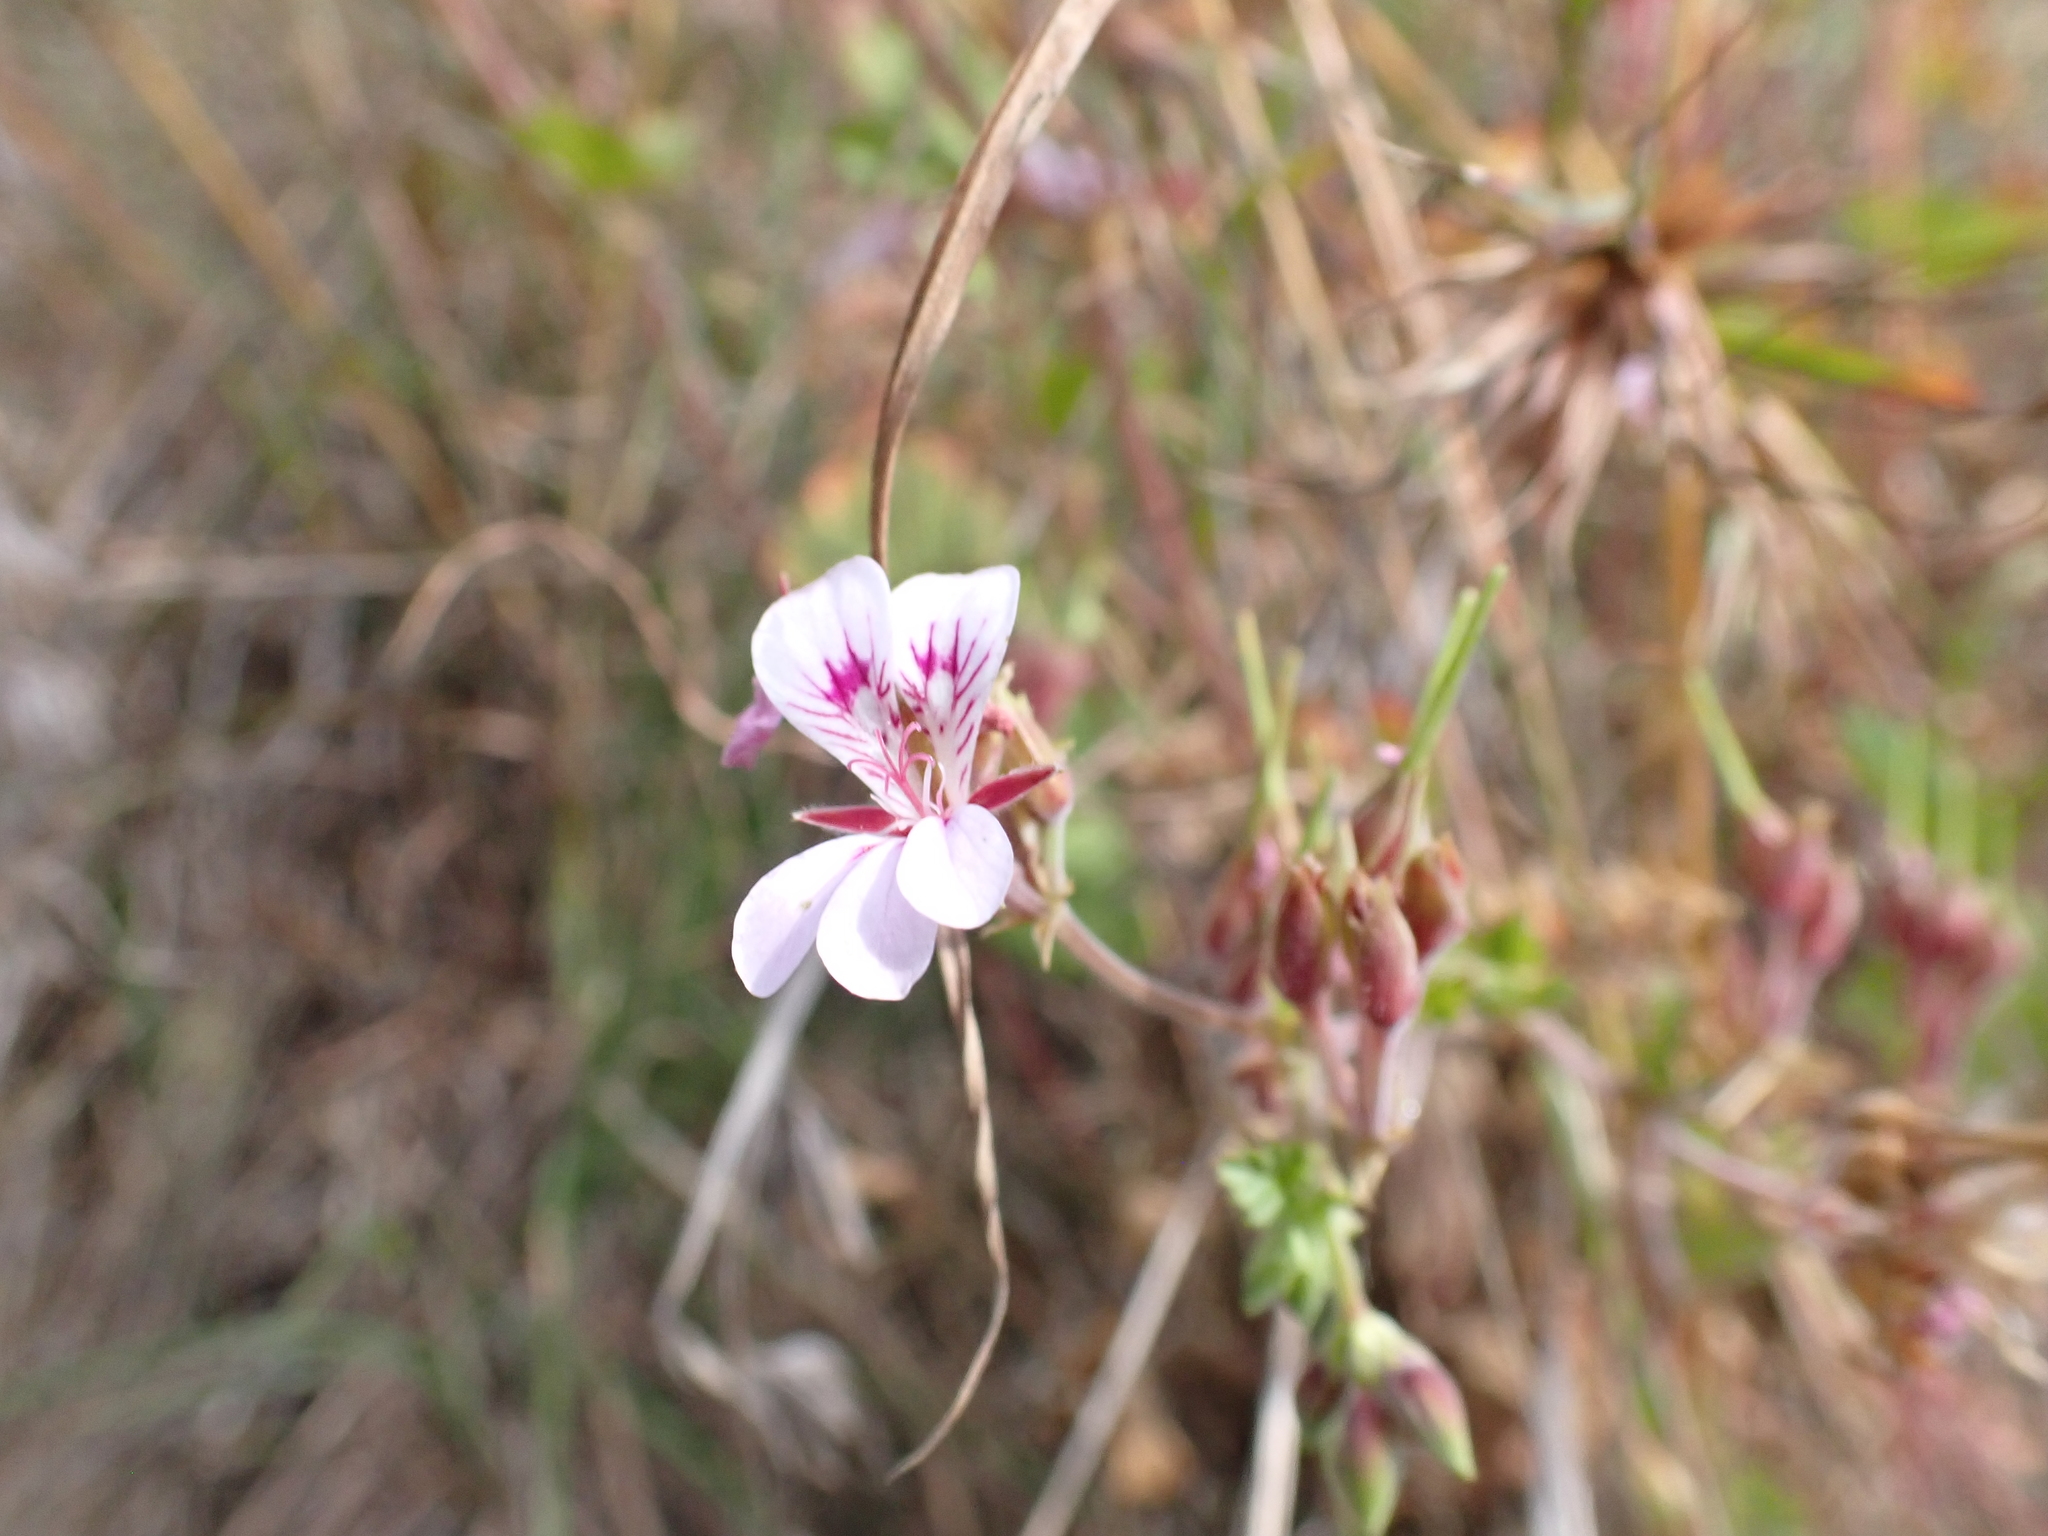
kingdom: Plantae
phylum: Tracheophyta
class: Magnoliopsida
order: Geraniales
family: Geraniaceae
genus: Pelargonium
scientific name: Pelargonium australe
